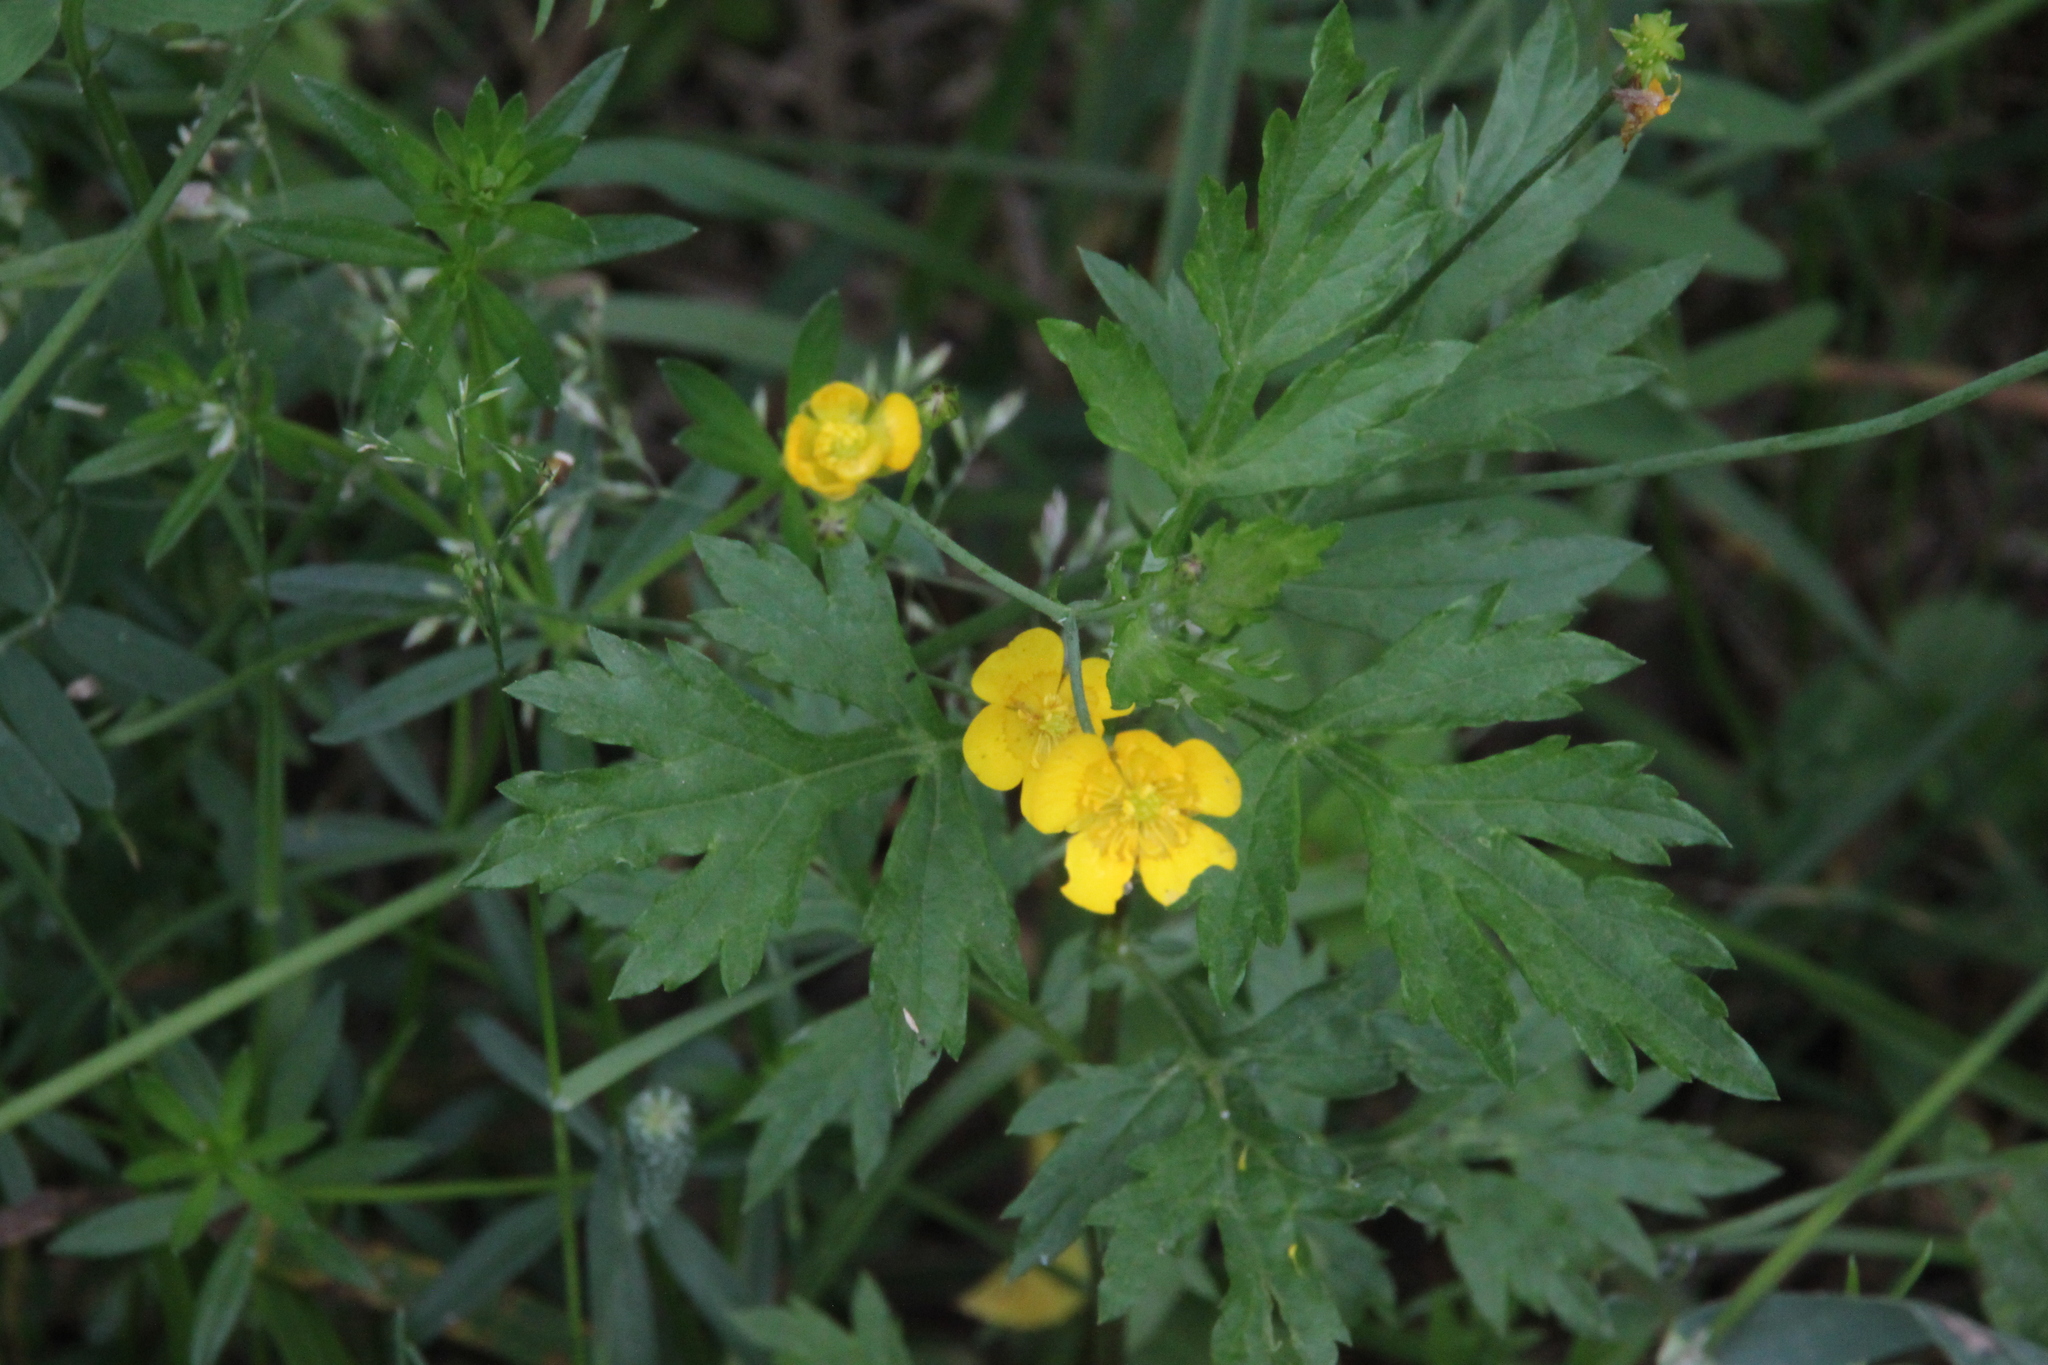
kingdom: Plantae
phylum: Tracheophyta
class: Magnoliopsida
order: Ranunculales
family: Ranunculaceae
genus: Ranunculus
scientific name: Ranunculus repens
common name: Creeping buttercup
